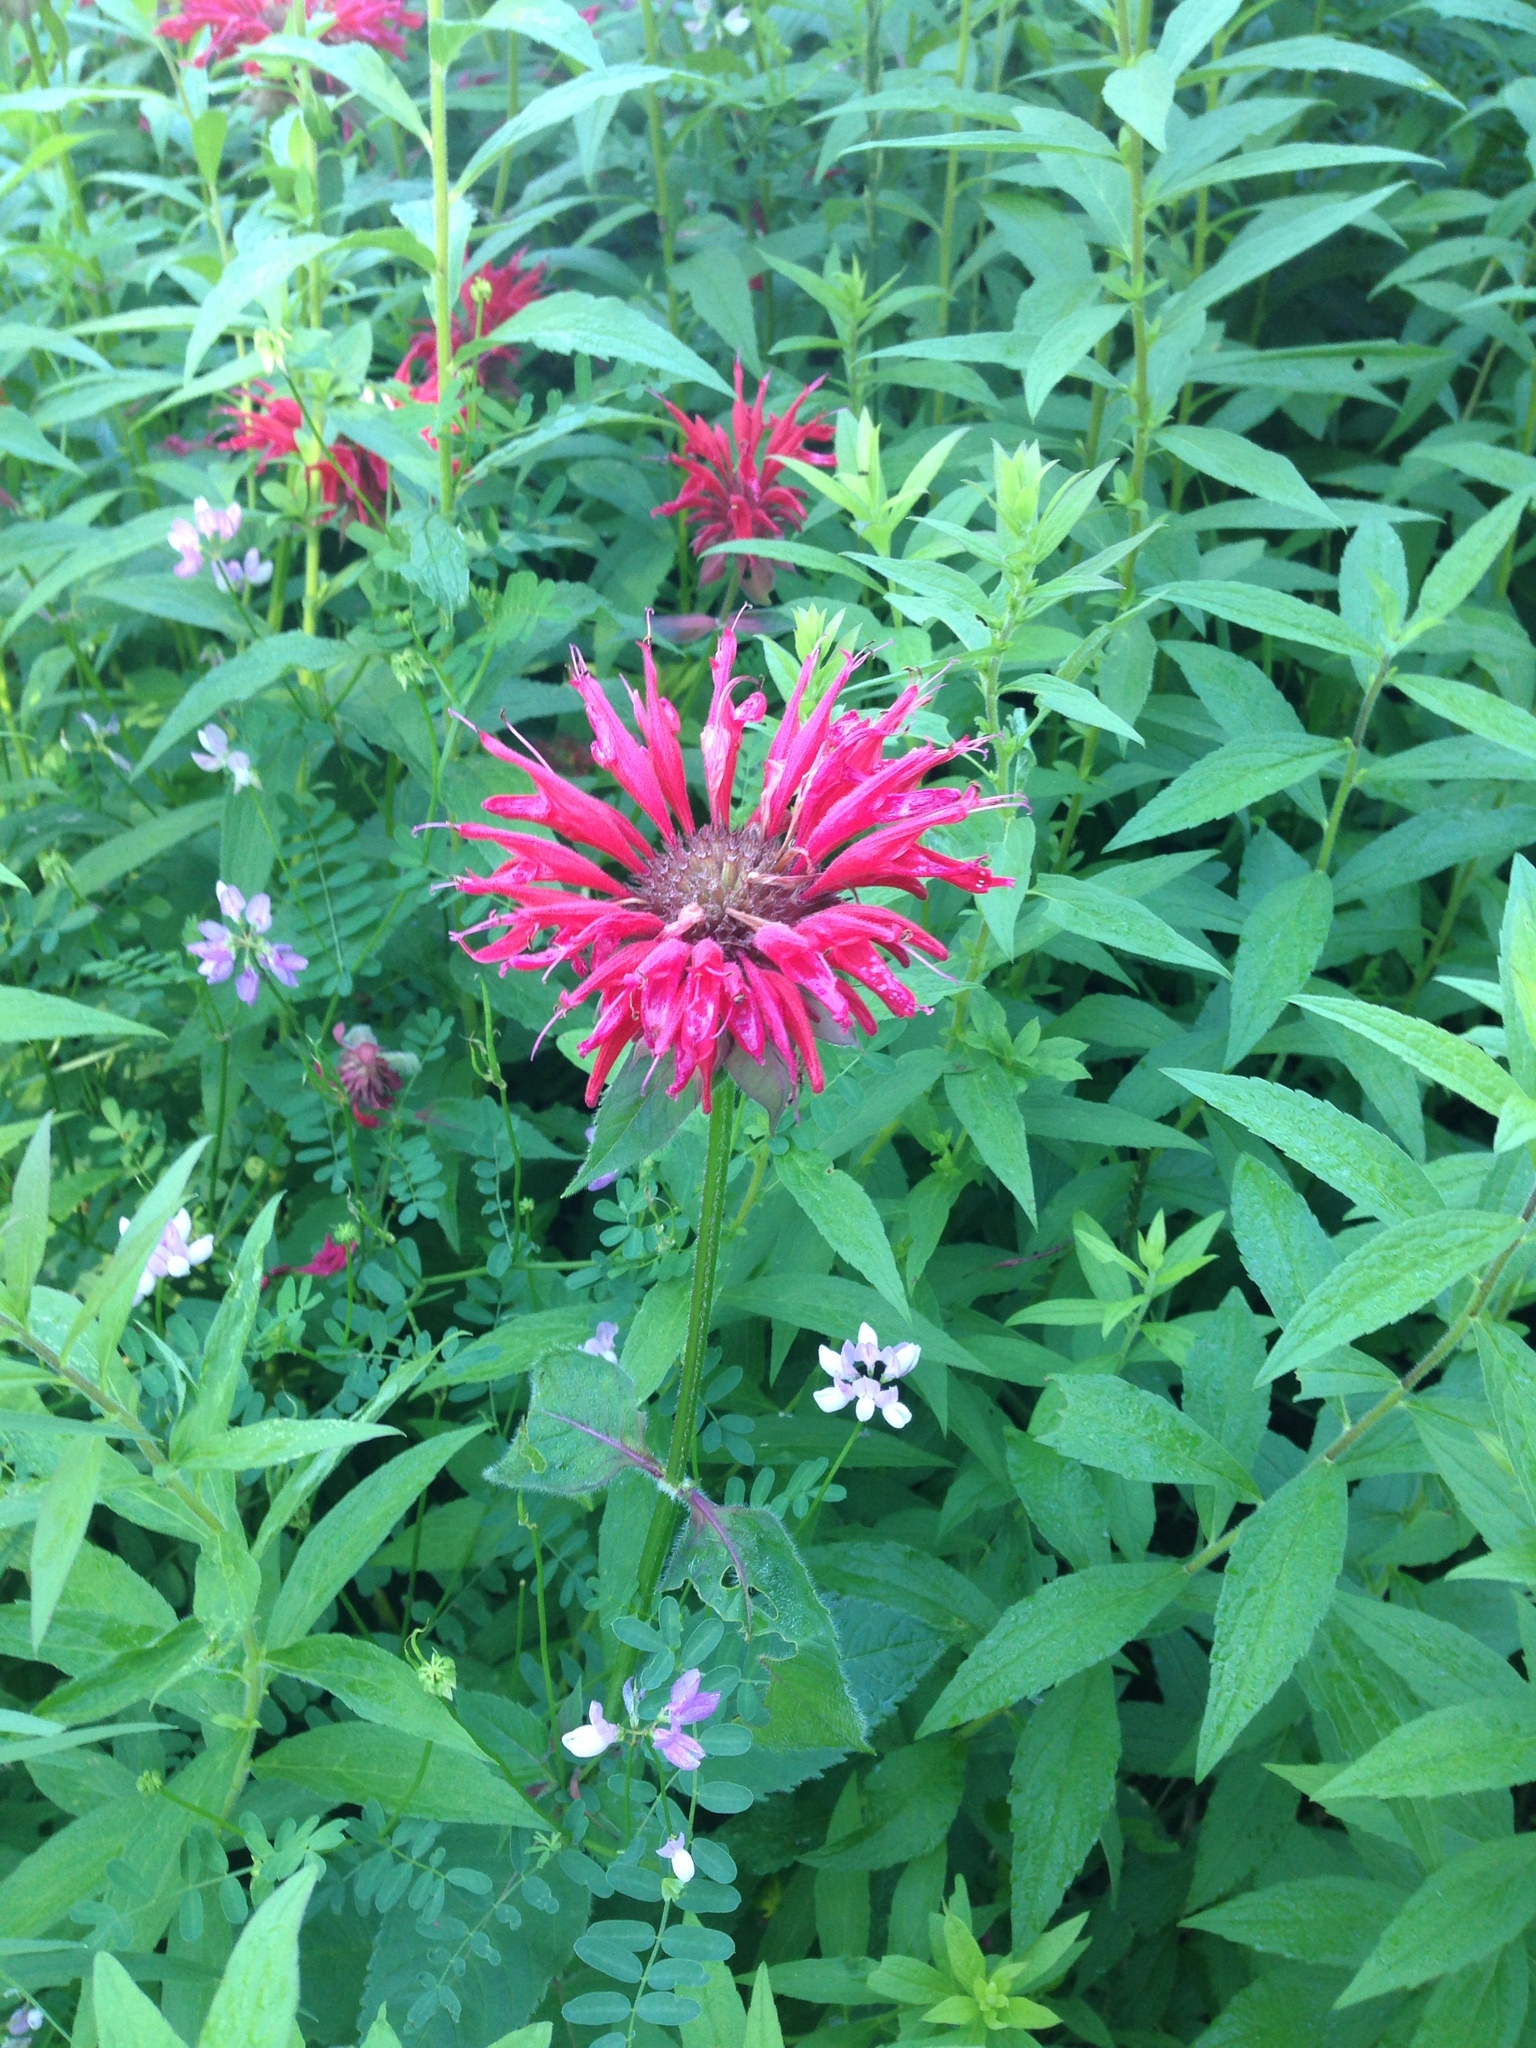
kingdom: Plantae
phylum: Tracheophyta
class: Magnoliopsida
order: Lamiales
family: Lamiaceae
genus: Monarda
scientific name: Monarda didyma
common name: Beebalm
